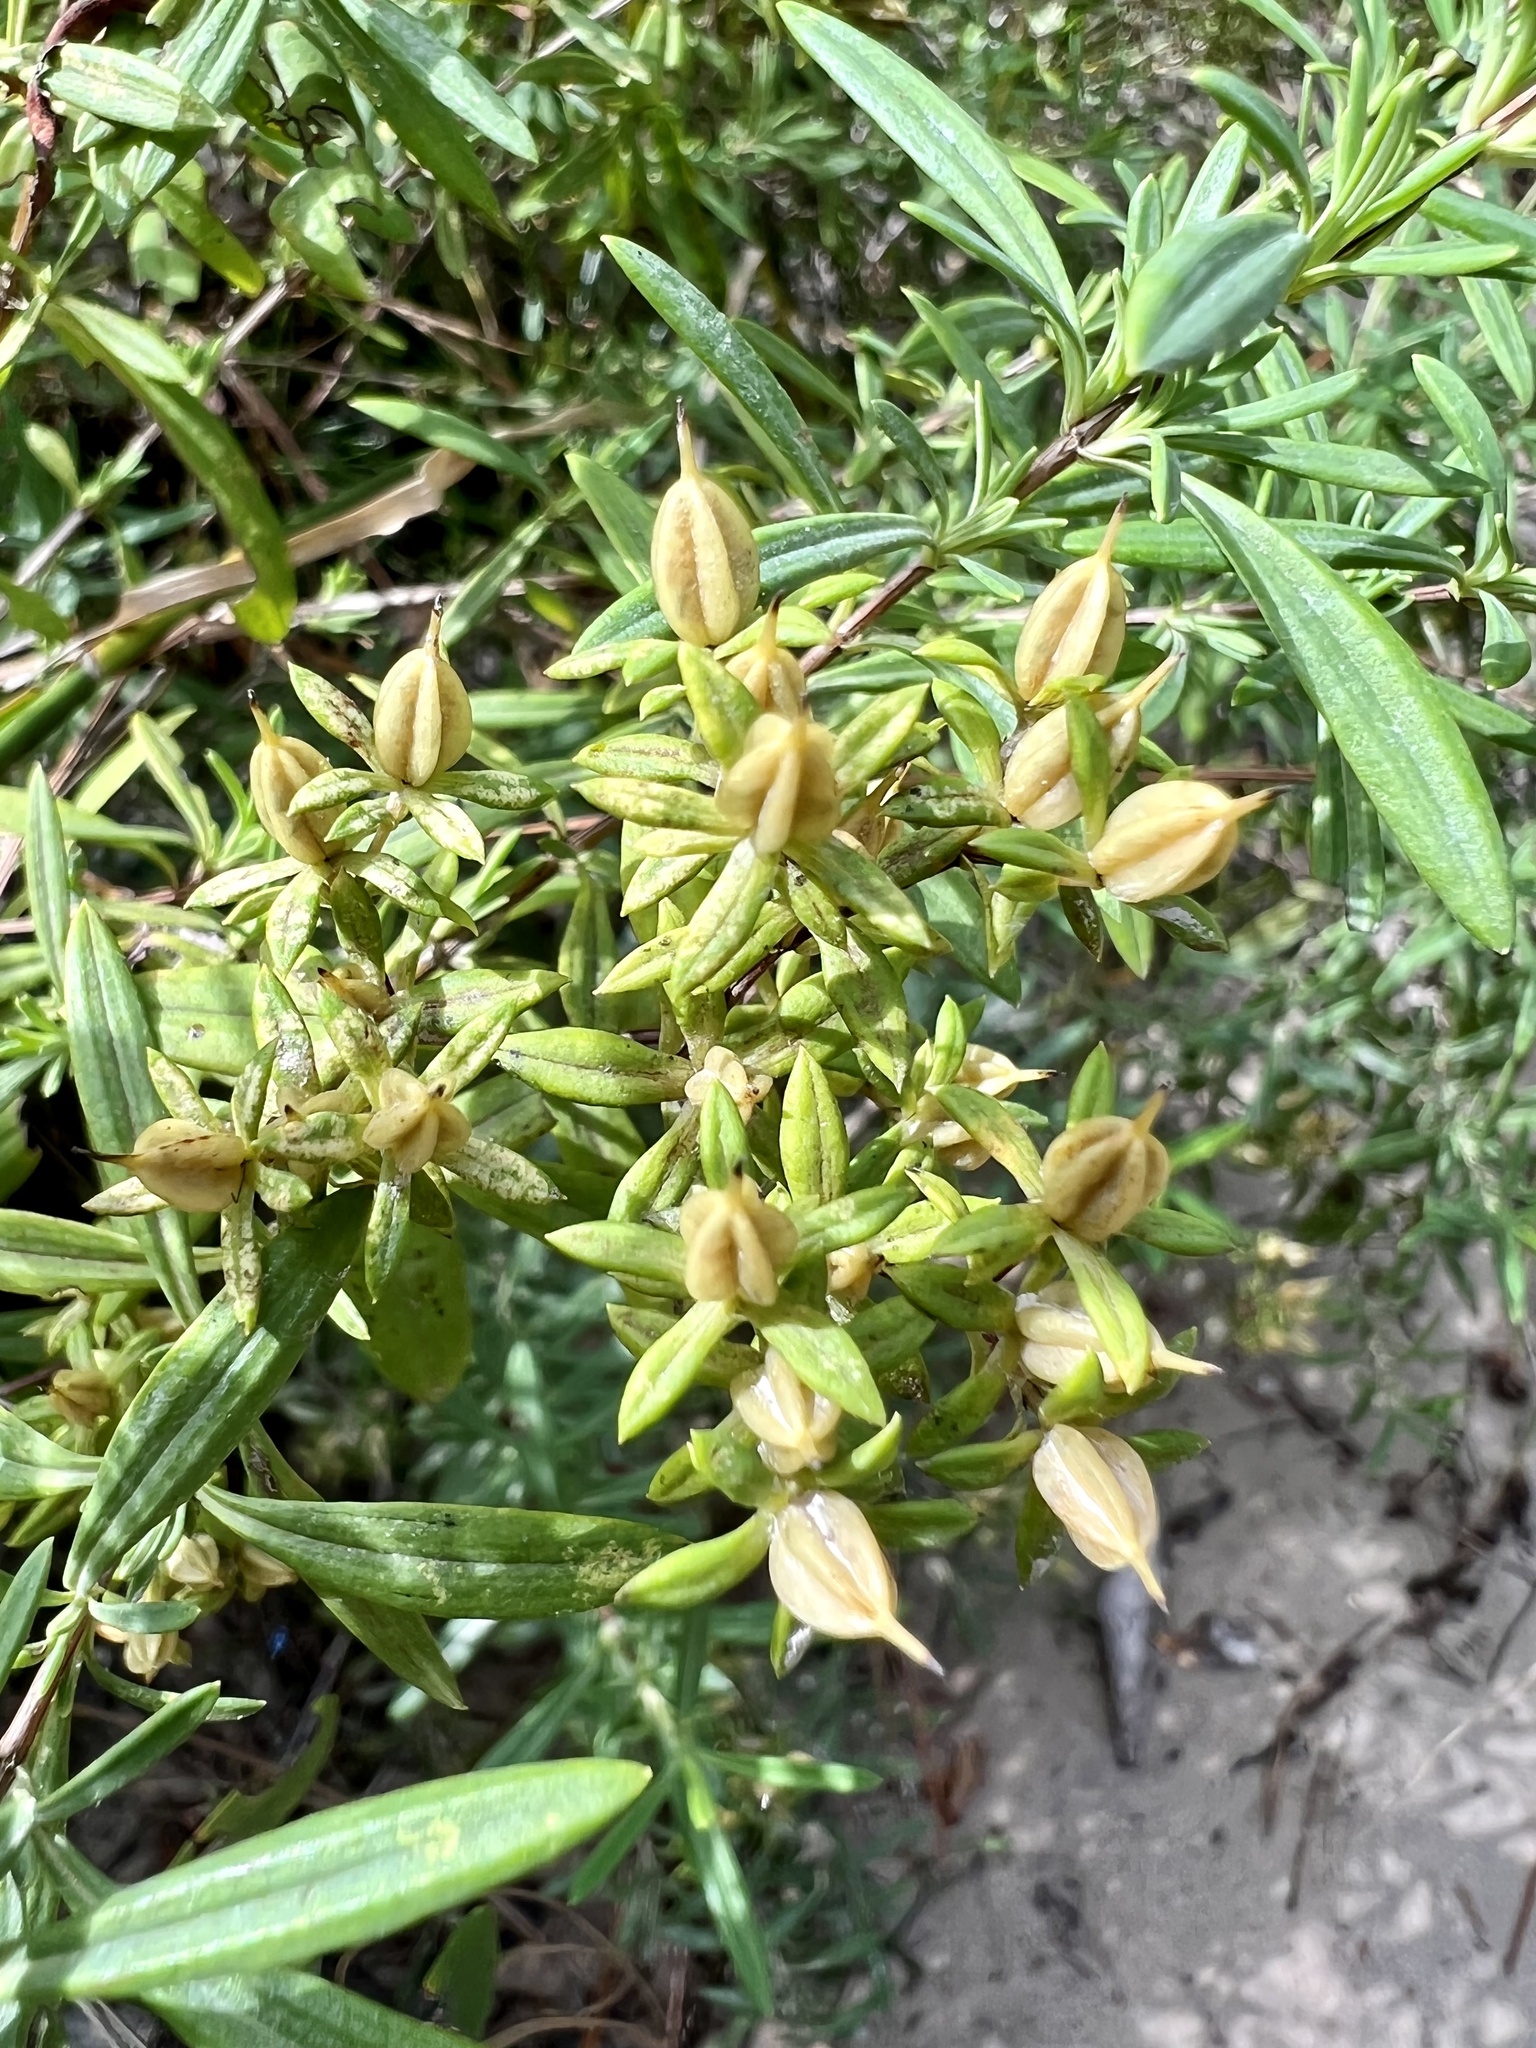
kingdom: Plantae
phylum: Tracheophyta
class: Magnoliopsida
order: Malpighiales
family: Hypericaceae
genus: Hypericum
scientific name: Hypericum lobocarpum
